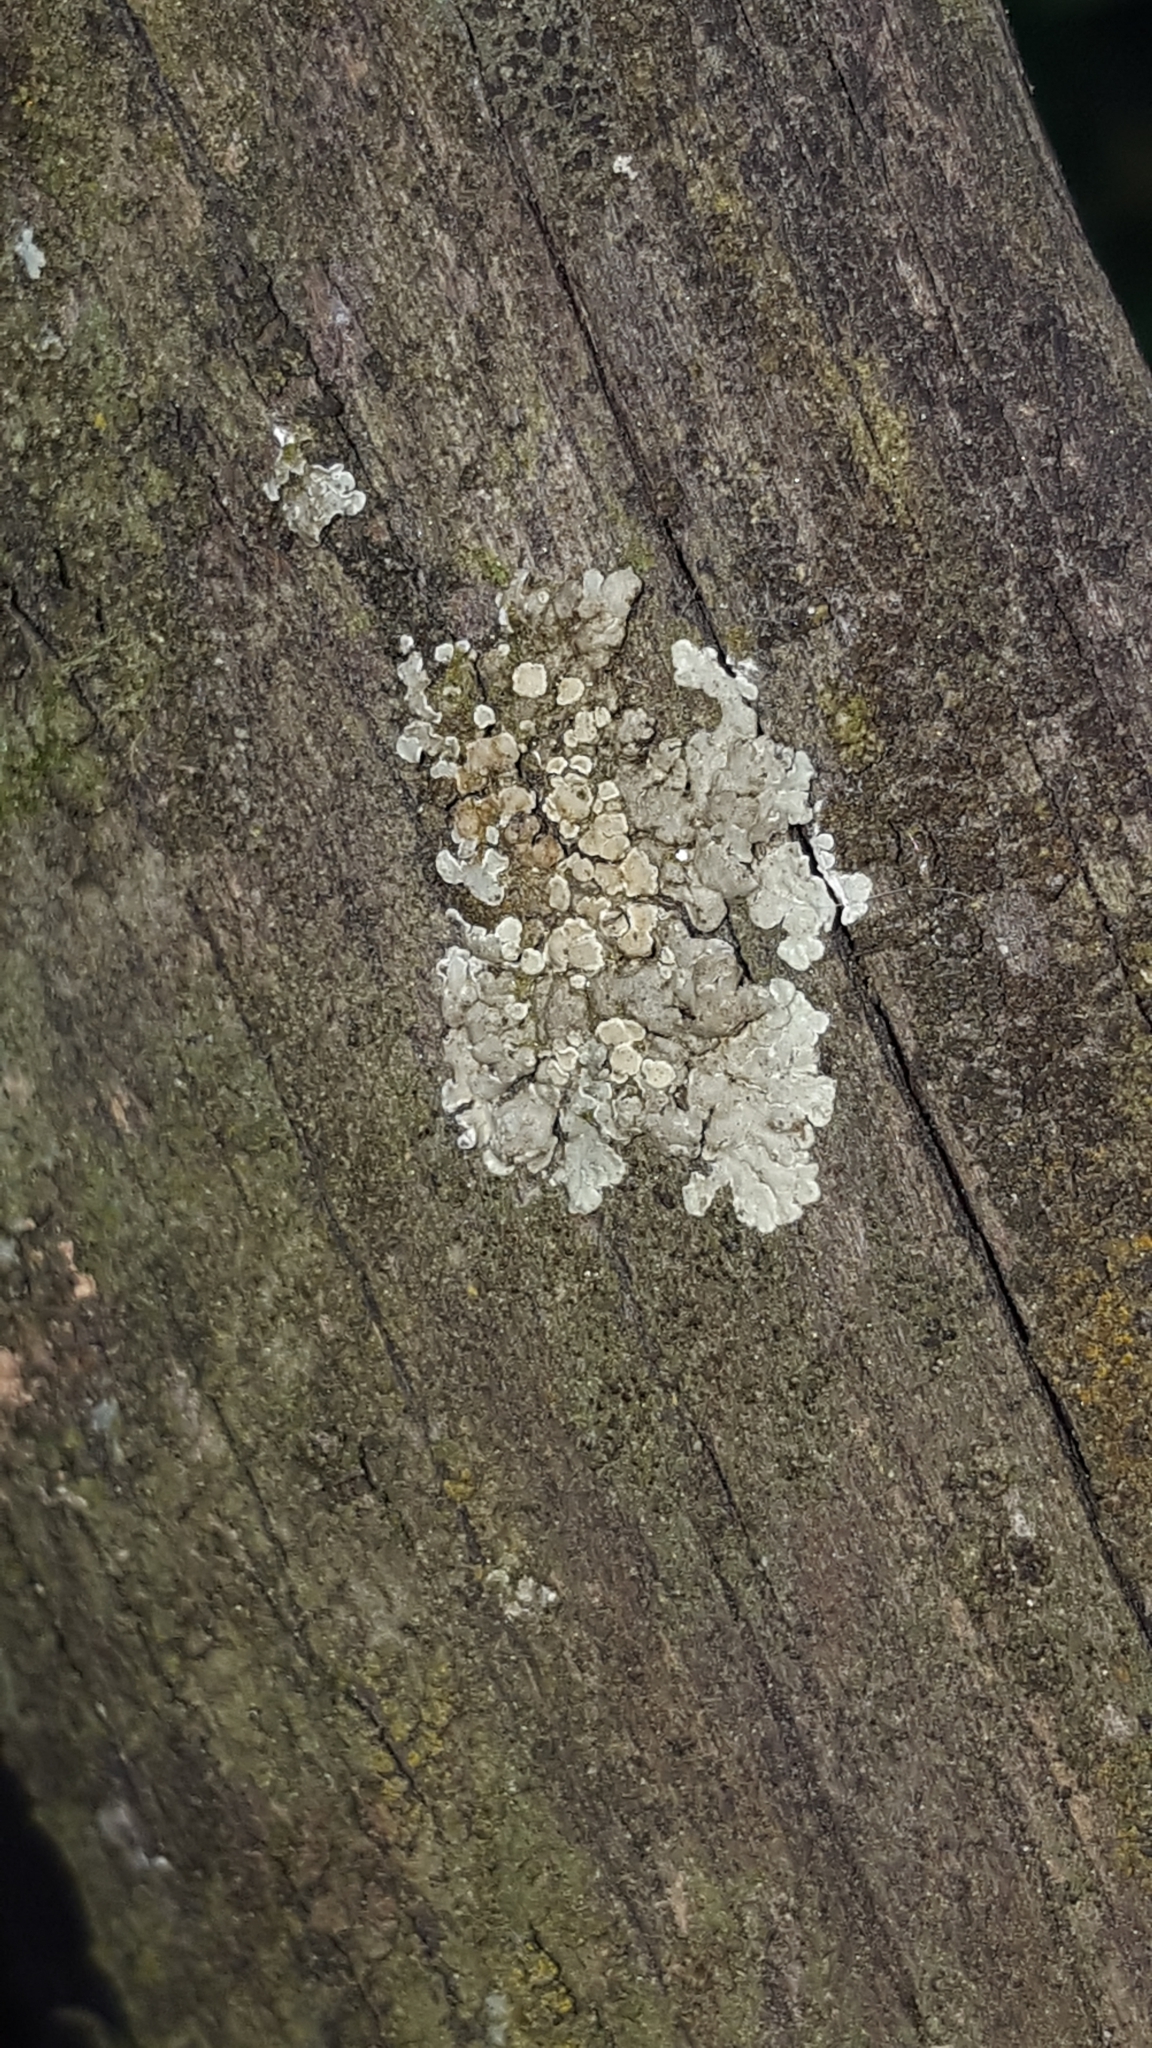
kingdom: Fungi
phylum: Ascomycota
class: Lecanoromycetes
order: Lecanorales
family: Lecanoraceae
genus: Protoparmeliopsis
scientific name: Protoparmeliopsis muralis
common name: Stonewall rim lichen
